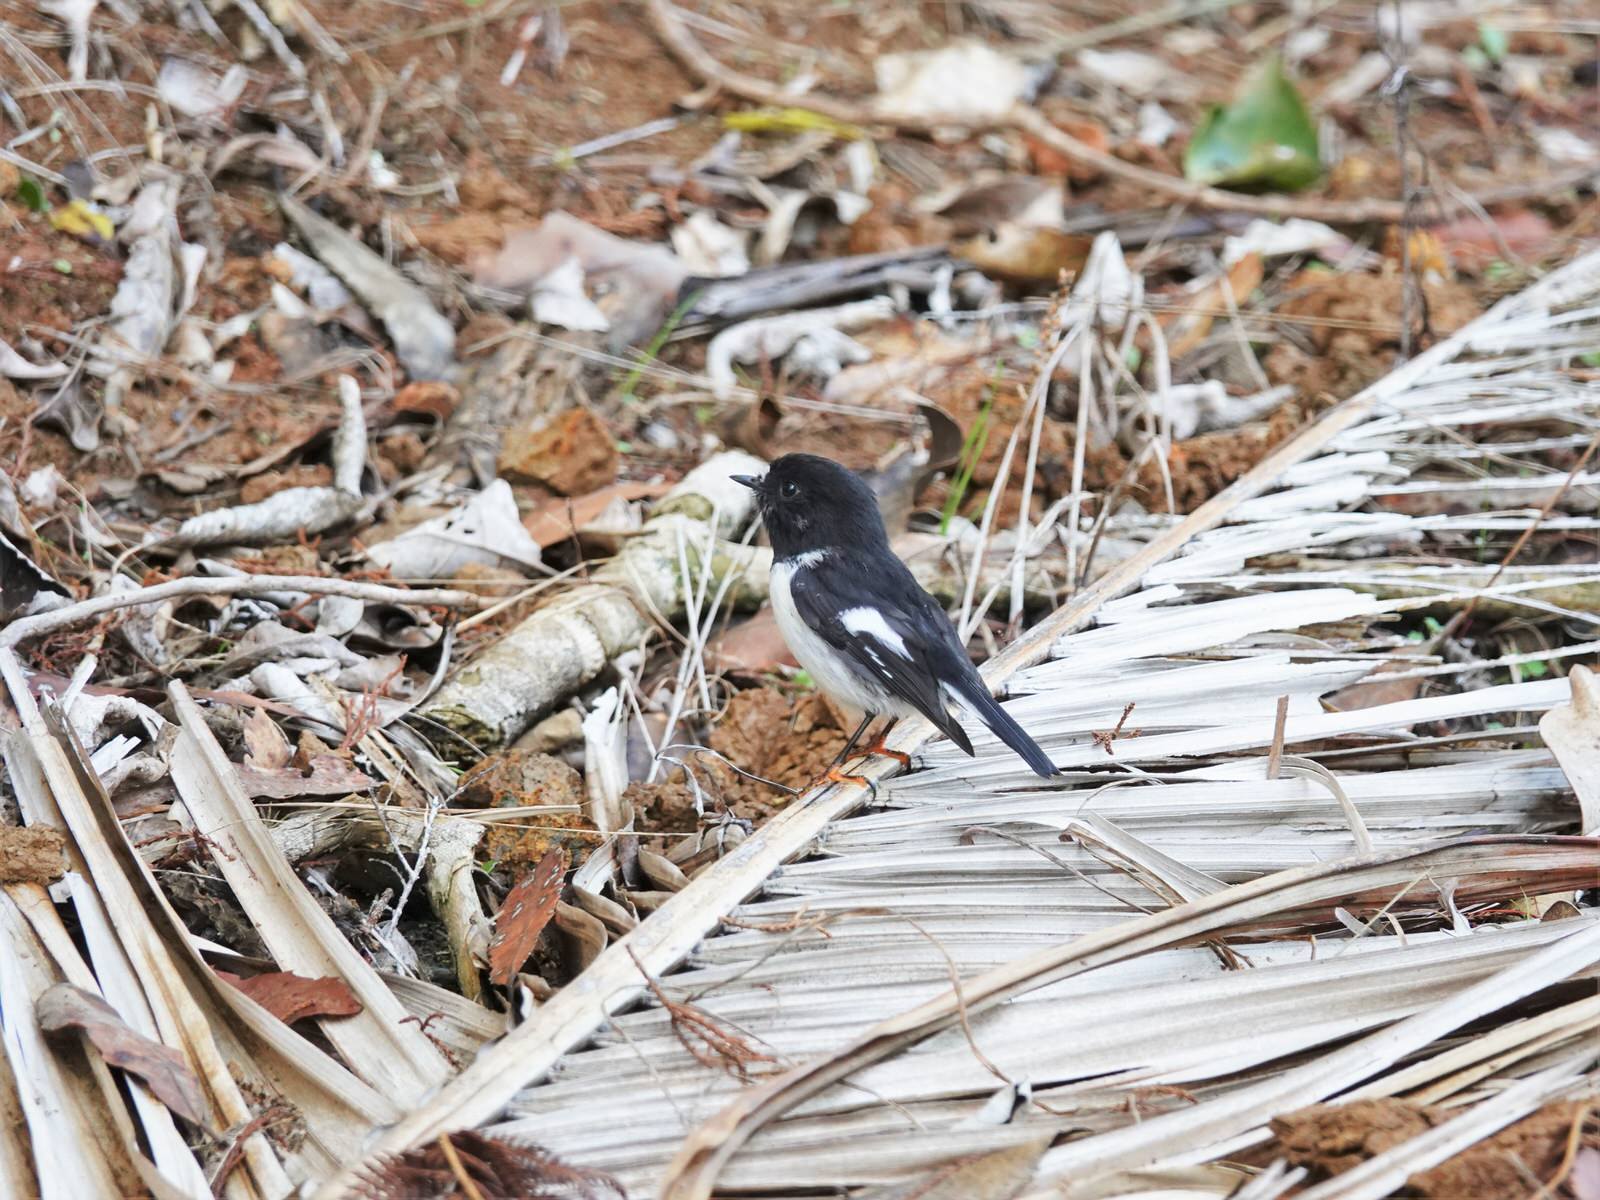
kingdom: Animalia
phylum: Chordata
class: Aves
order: Passeriformes
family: Petroicidae
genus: Petroica
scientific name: Petroica macrocephala
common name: Tomtit
